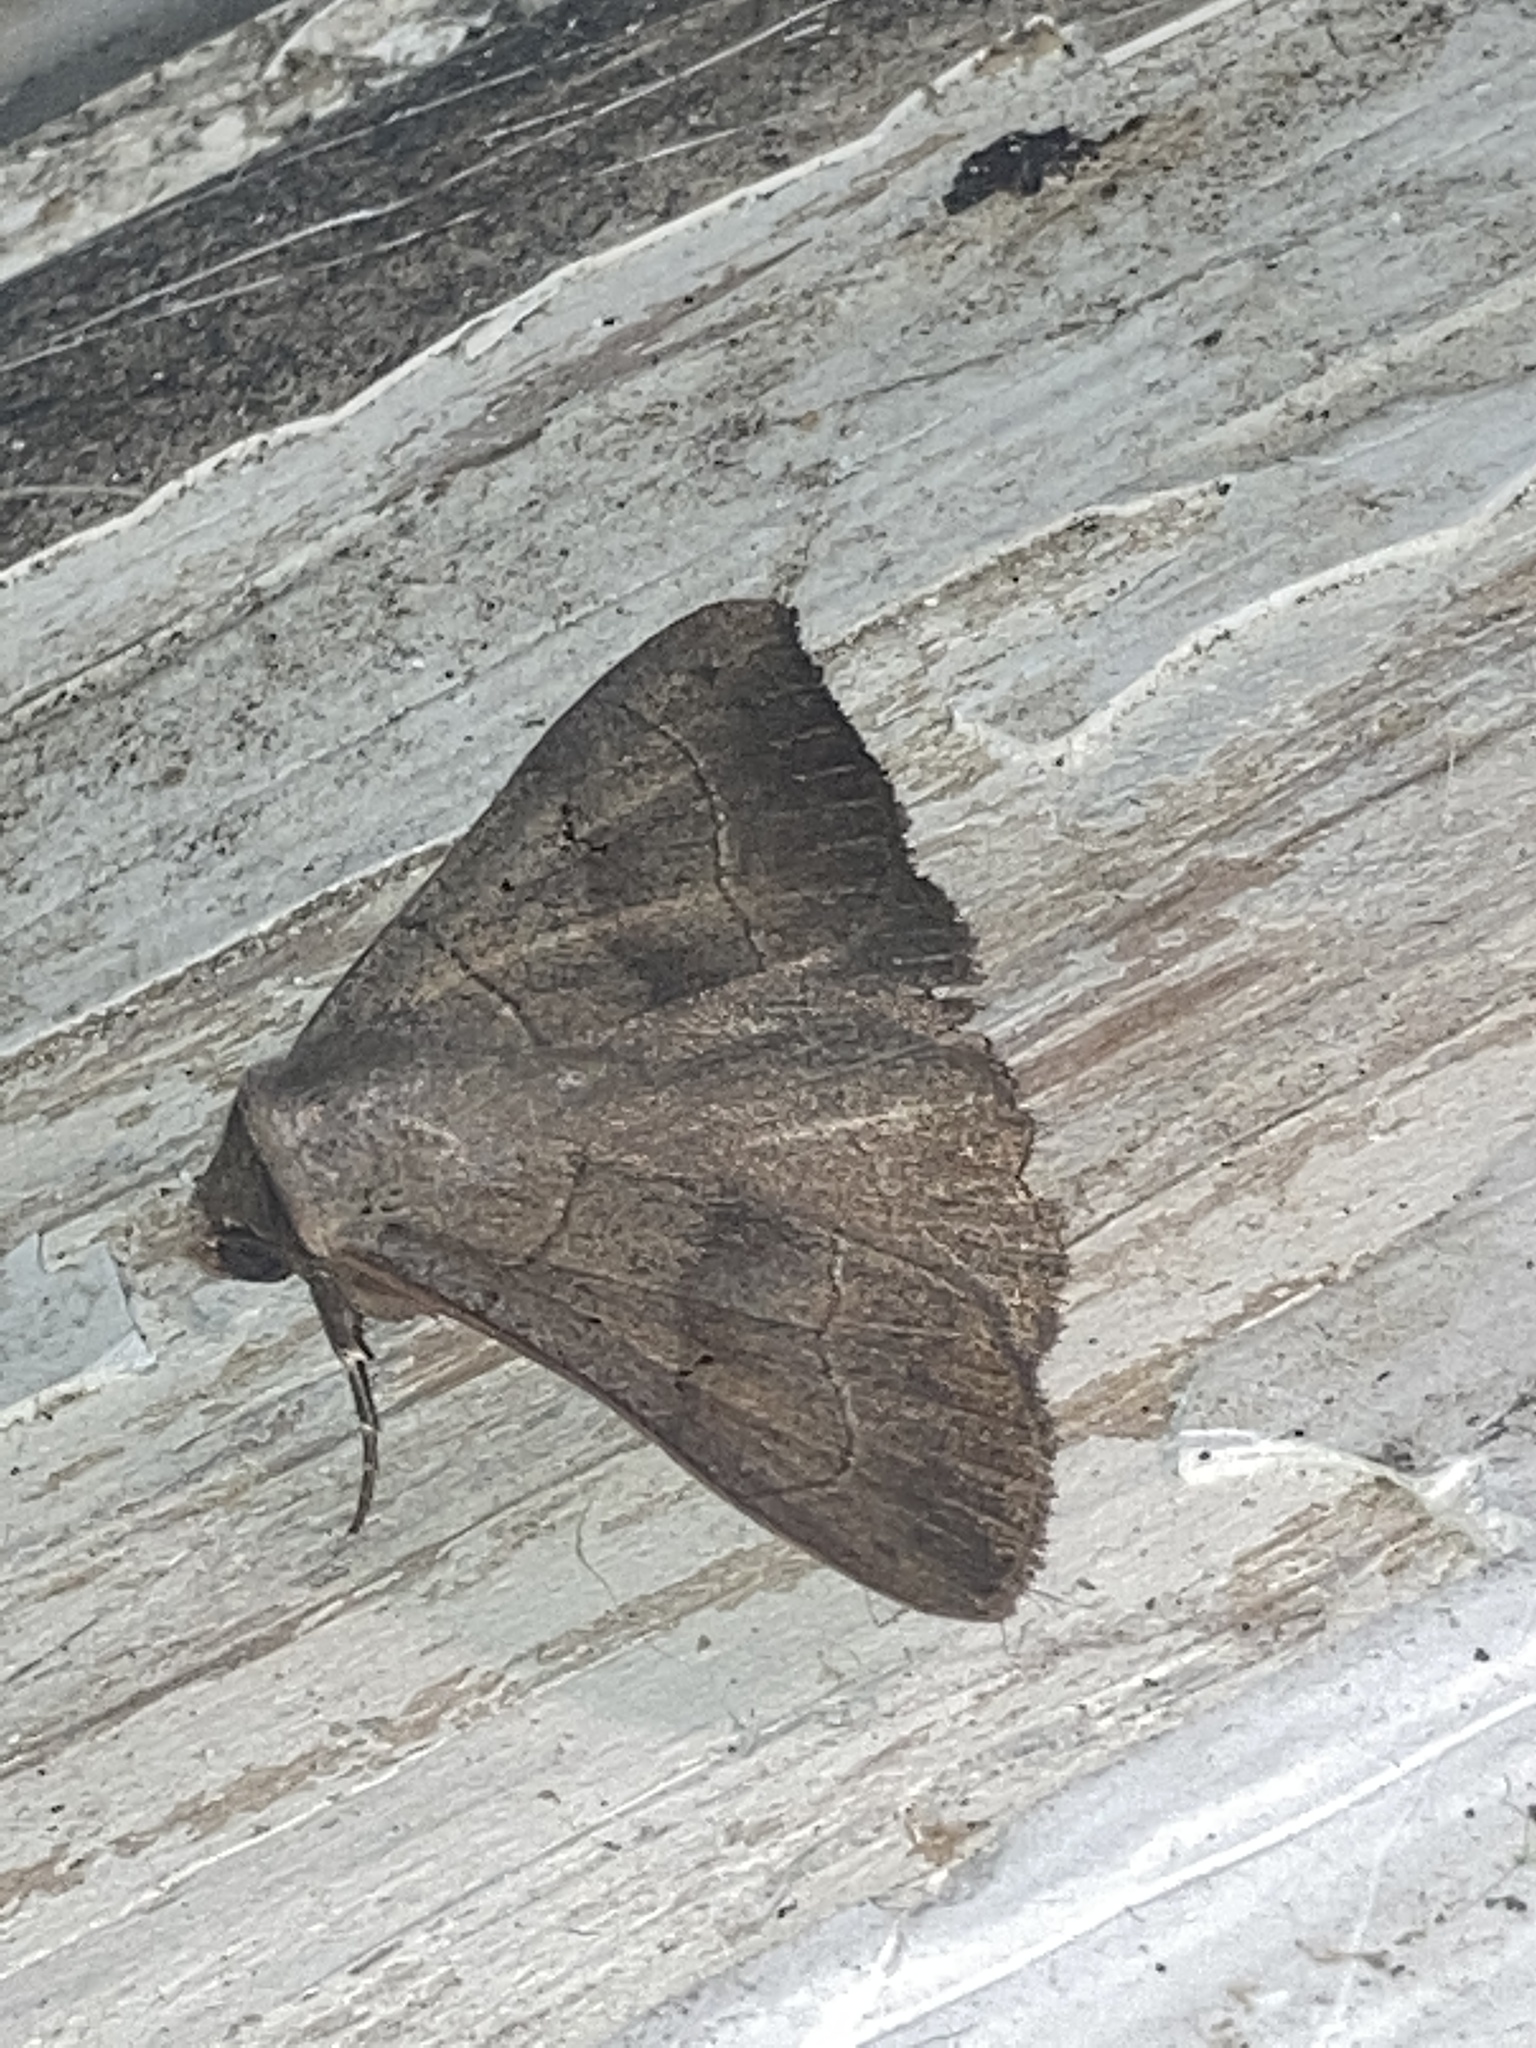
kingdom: Animalia
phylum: Arthropoda
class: Insecta
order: Lepidoptera
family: Erebidae
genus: Panopoda
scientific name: Panopoda carneicosta
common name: Brown panopoda moth
